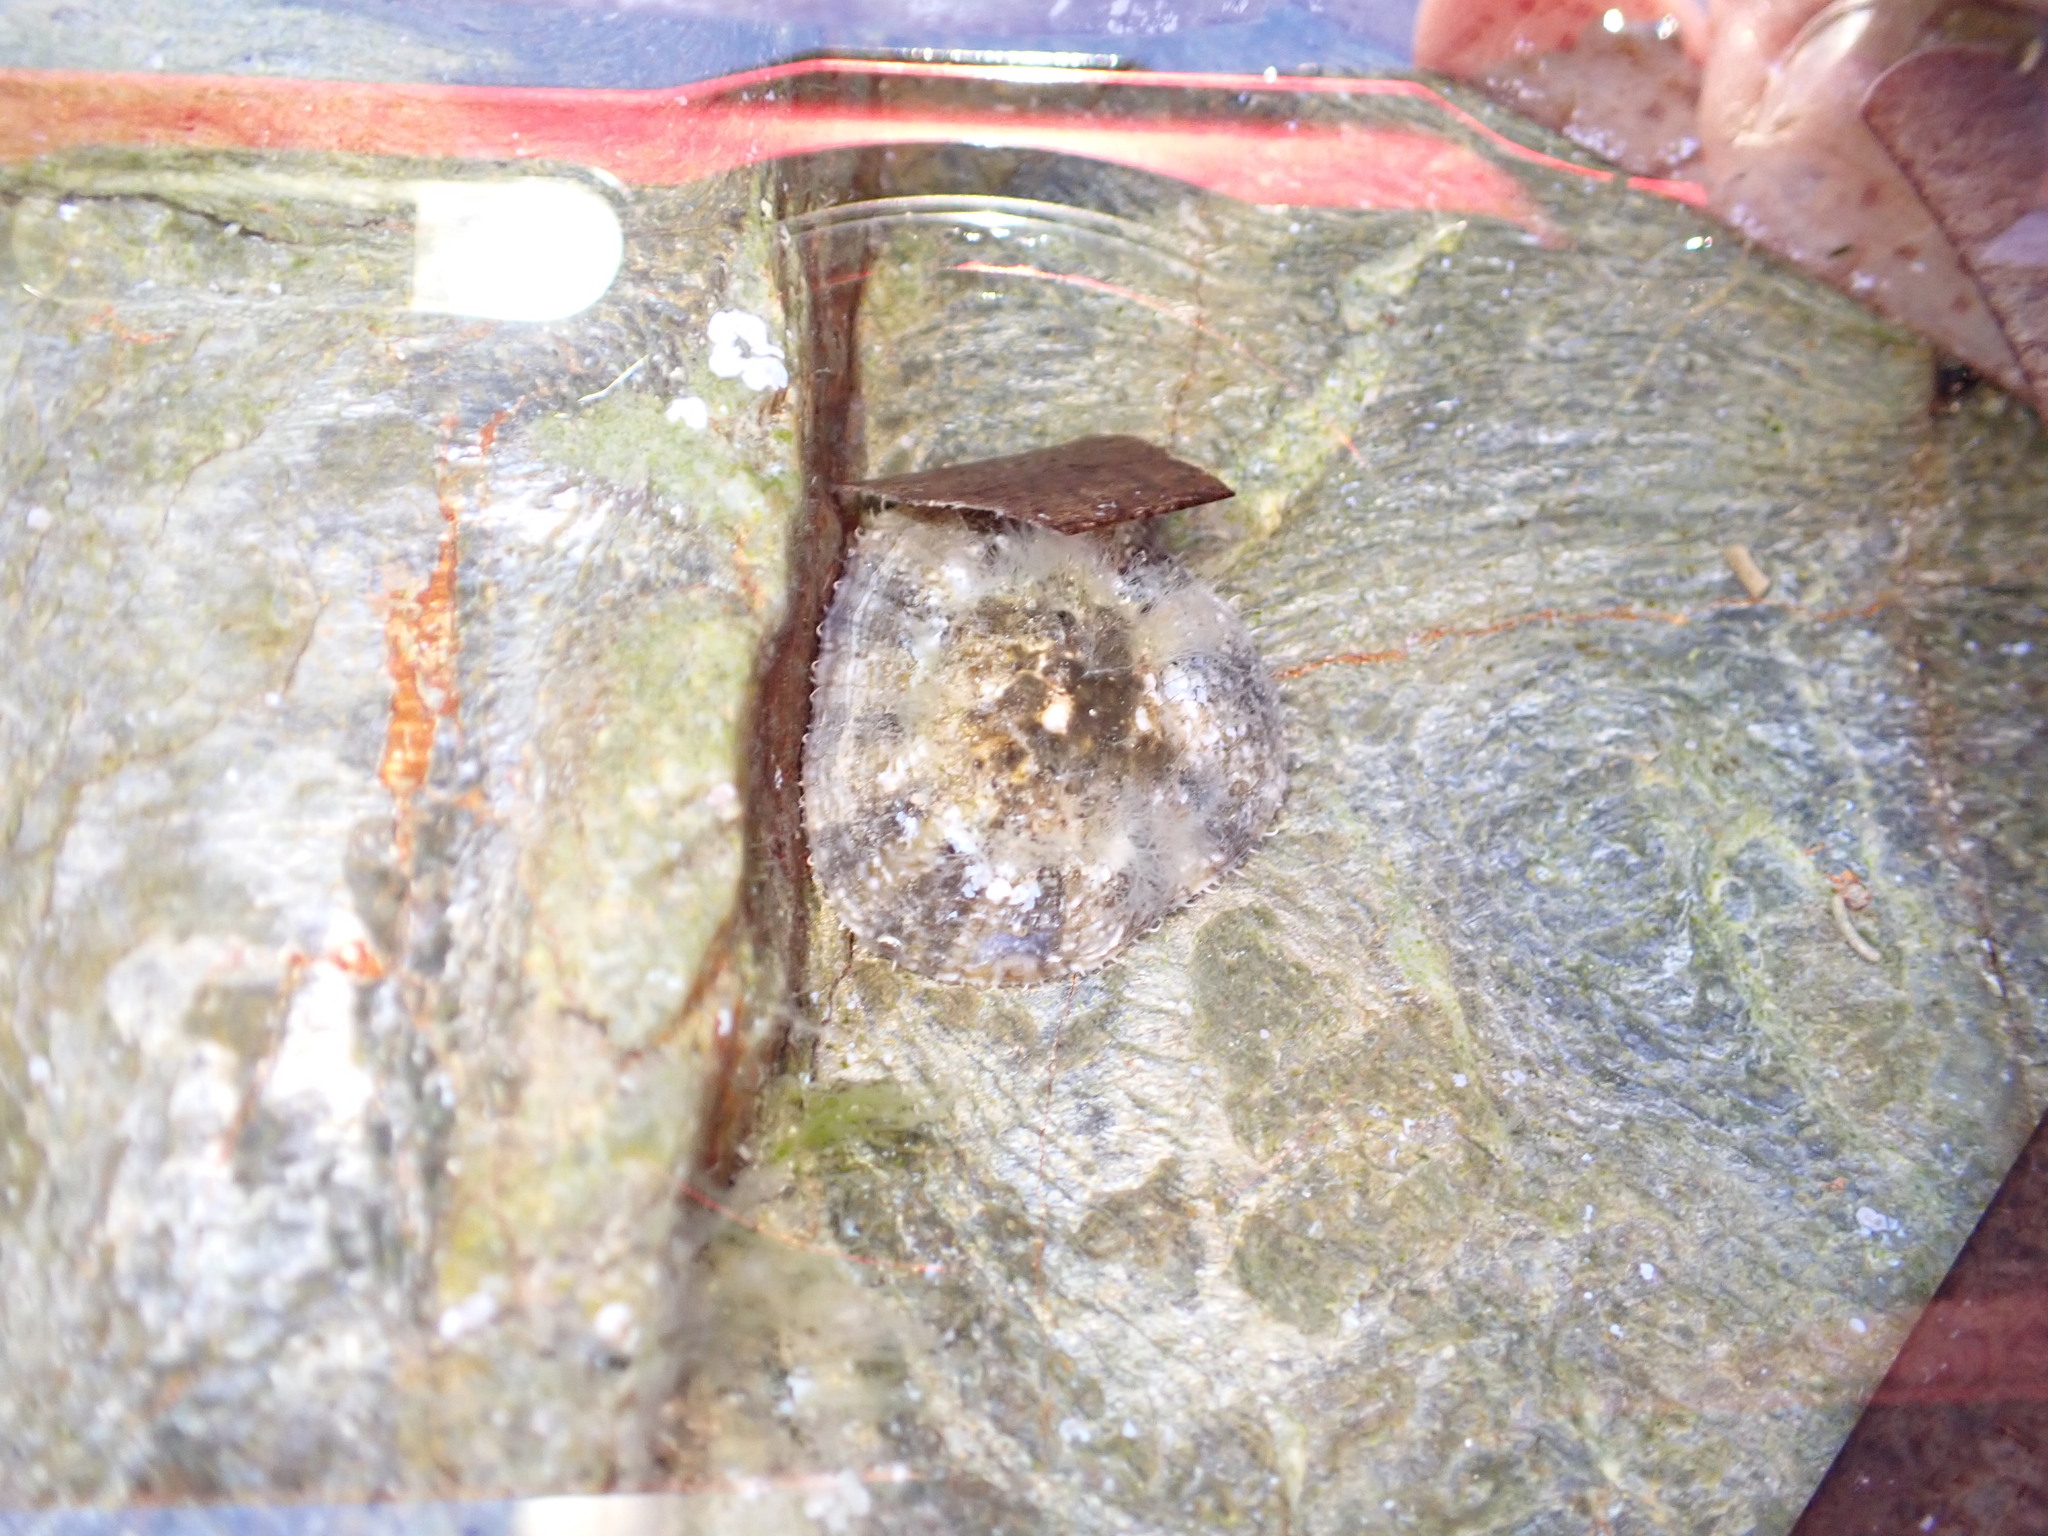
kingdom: Animalia
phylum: Mollusca
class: Gastropoda
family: Patellidae
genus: Patella
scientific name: Patella caerulea
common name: Mediterranean limpet
